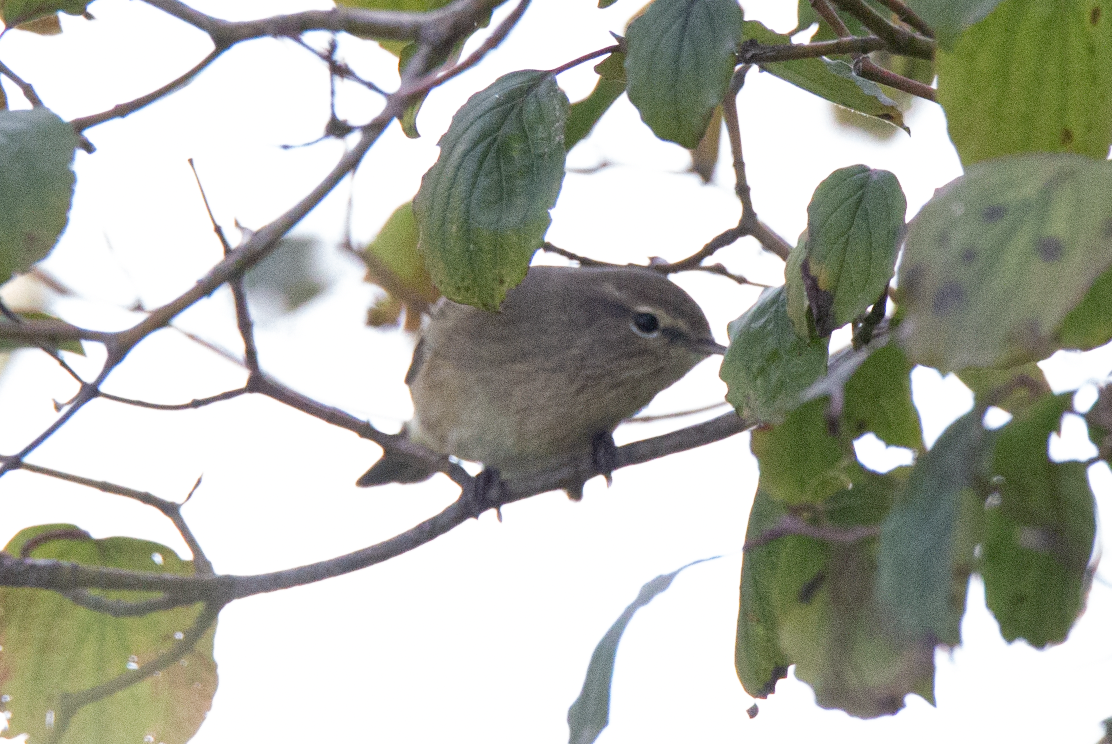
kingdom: Animalia
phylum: Chordata
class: Aves
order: Passeriformes
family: Phylloscopidae
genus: Phylloscopus
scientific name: Phylloscopus collybita
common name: Common chiffchaff
